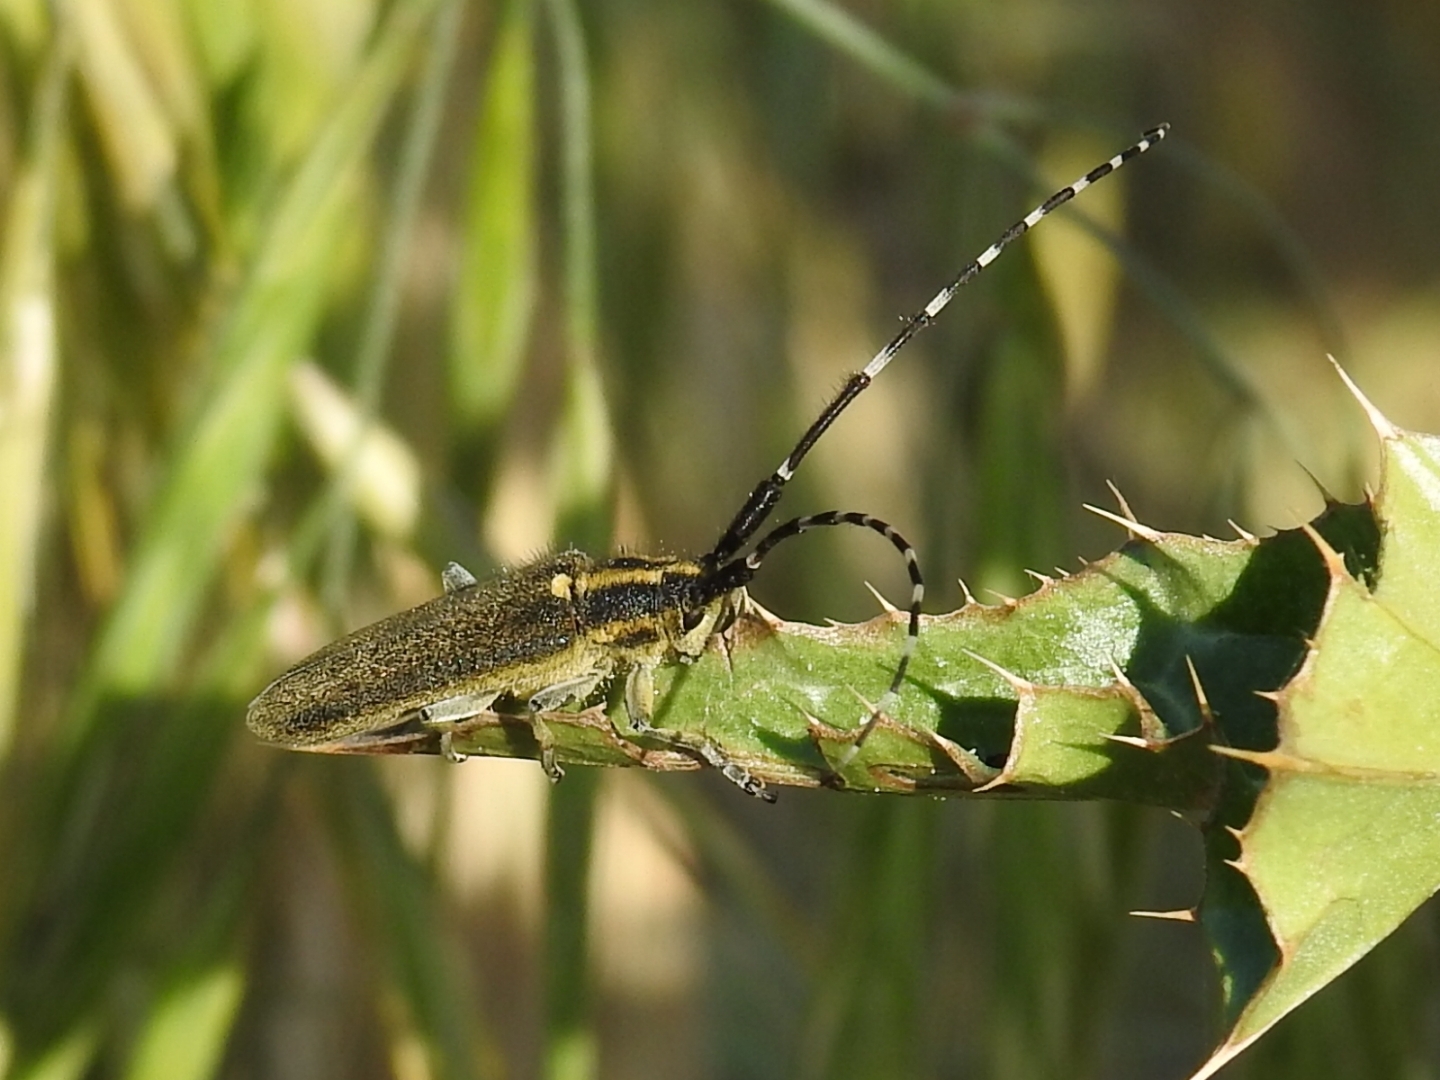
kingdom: Animalia
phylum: Arthropoda
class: Insecta
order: Coleoptera
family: Cerambycidae
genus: Agapanthia
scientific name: Agapanthia cynarae
